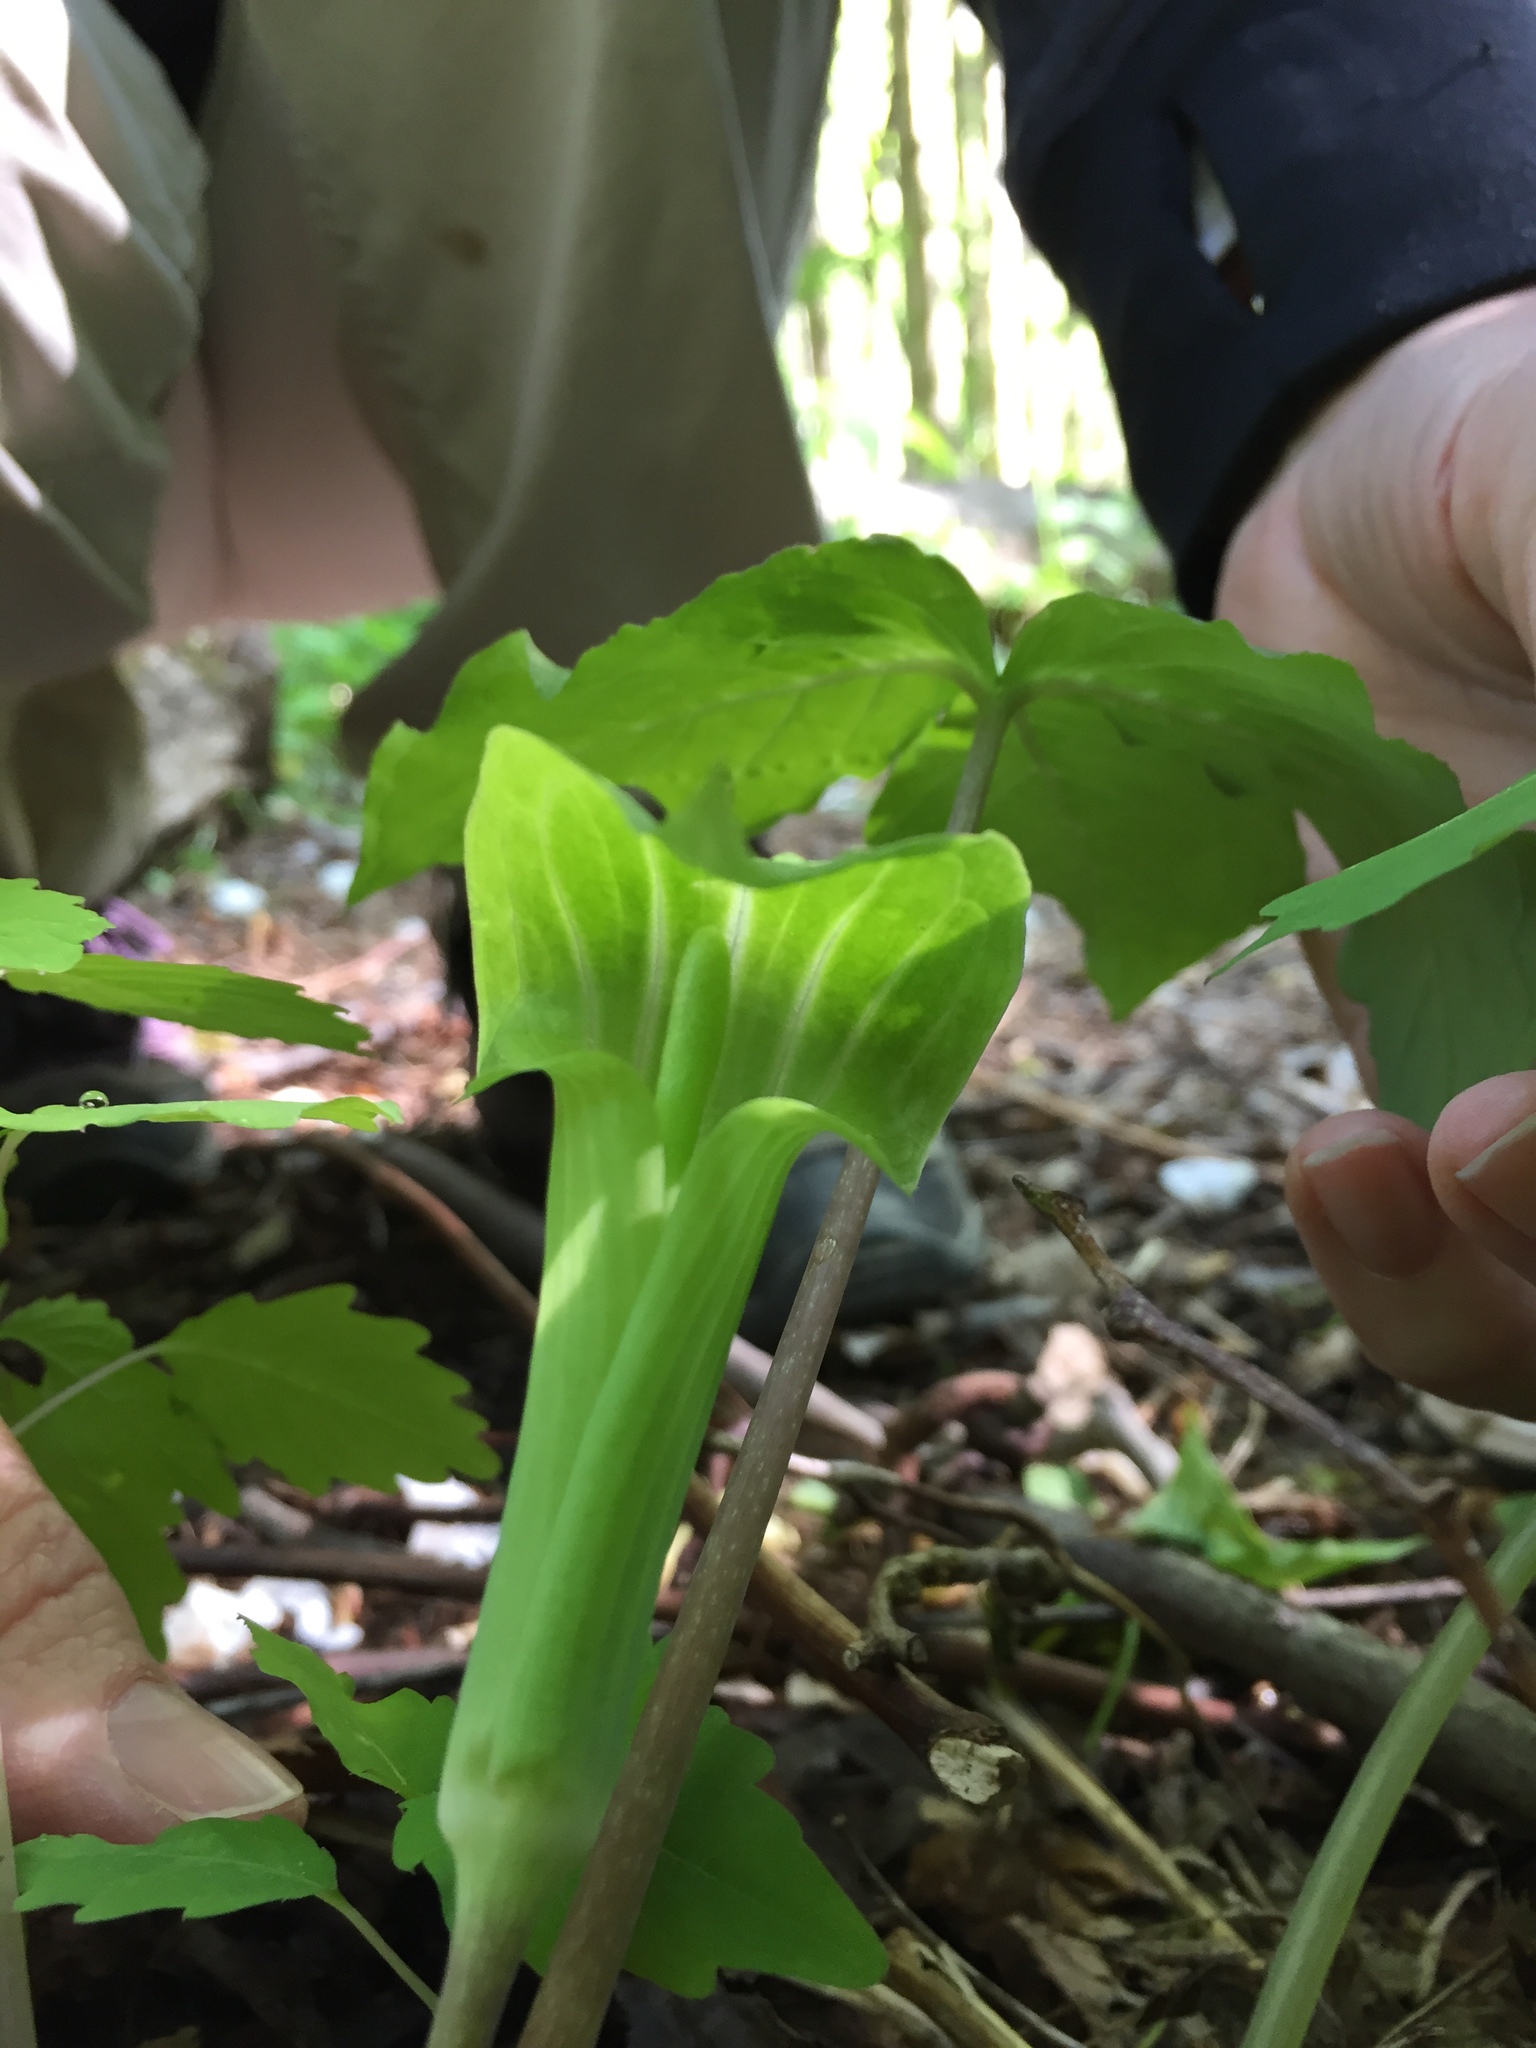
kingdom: Plantae
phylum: Tracheophyta
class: Liliopsida
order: Alismatales
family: Araceae
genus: Arisaema
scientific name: Arisaema triphyllum
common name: Jack-in-the-pulpit
